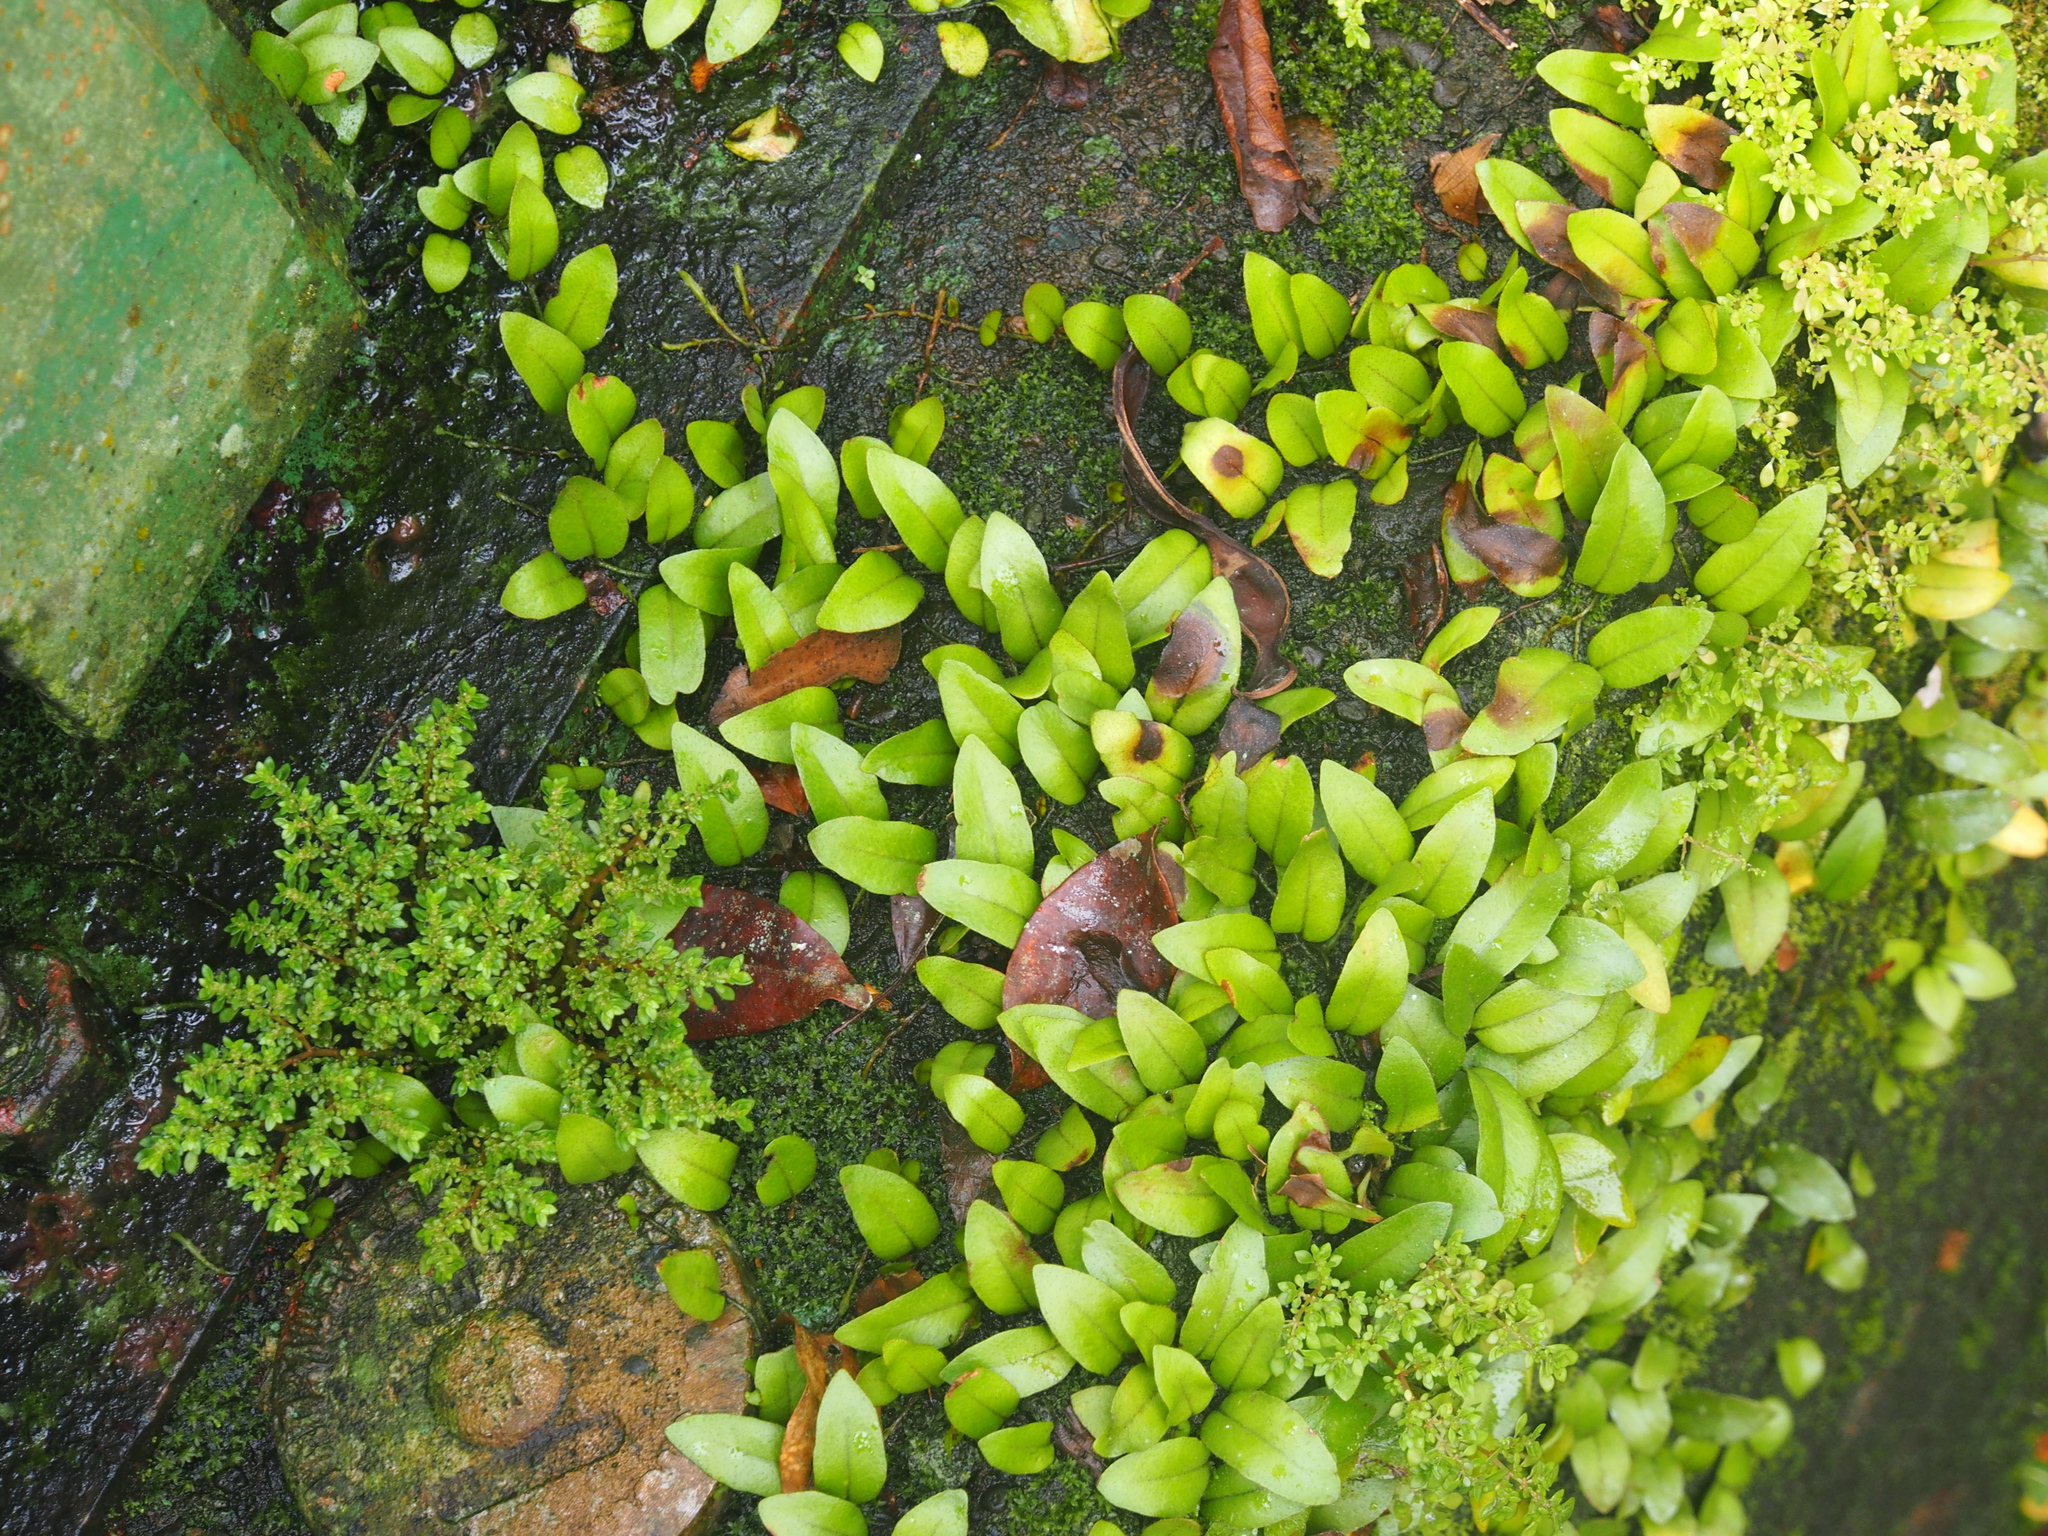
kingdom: Plantae
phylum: Tracheophyta
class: Polypodiopsida
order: Polypodiales
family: Polypodiaceae
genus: Microgramma
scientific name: Microgramma reptans
